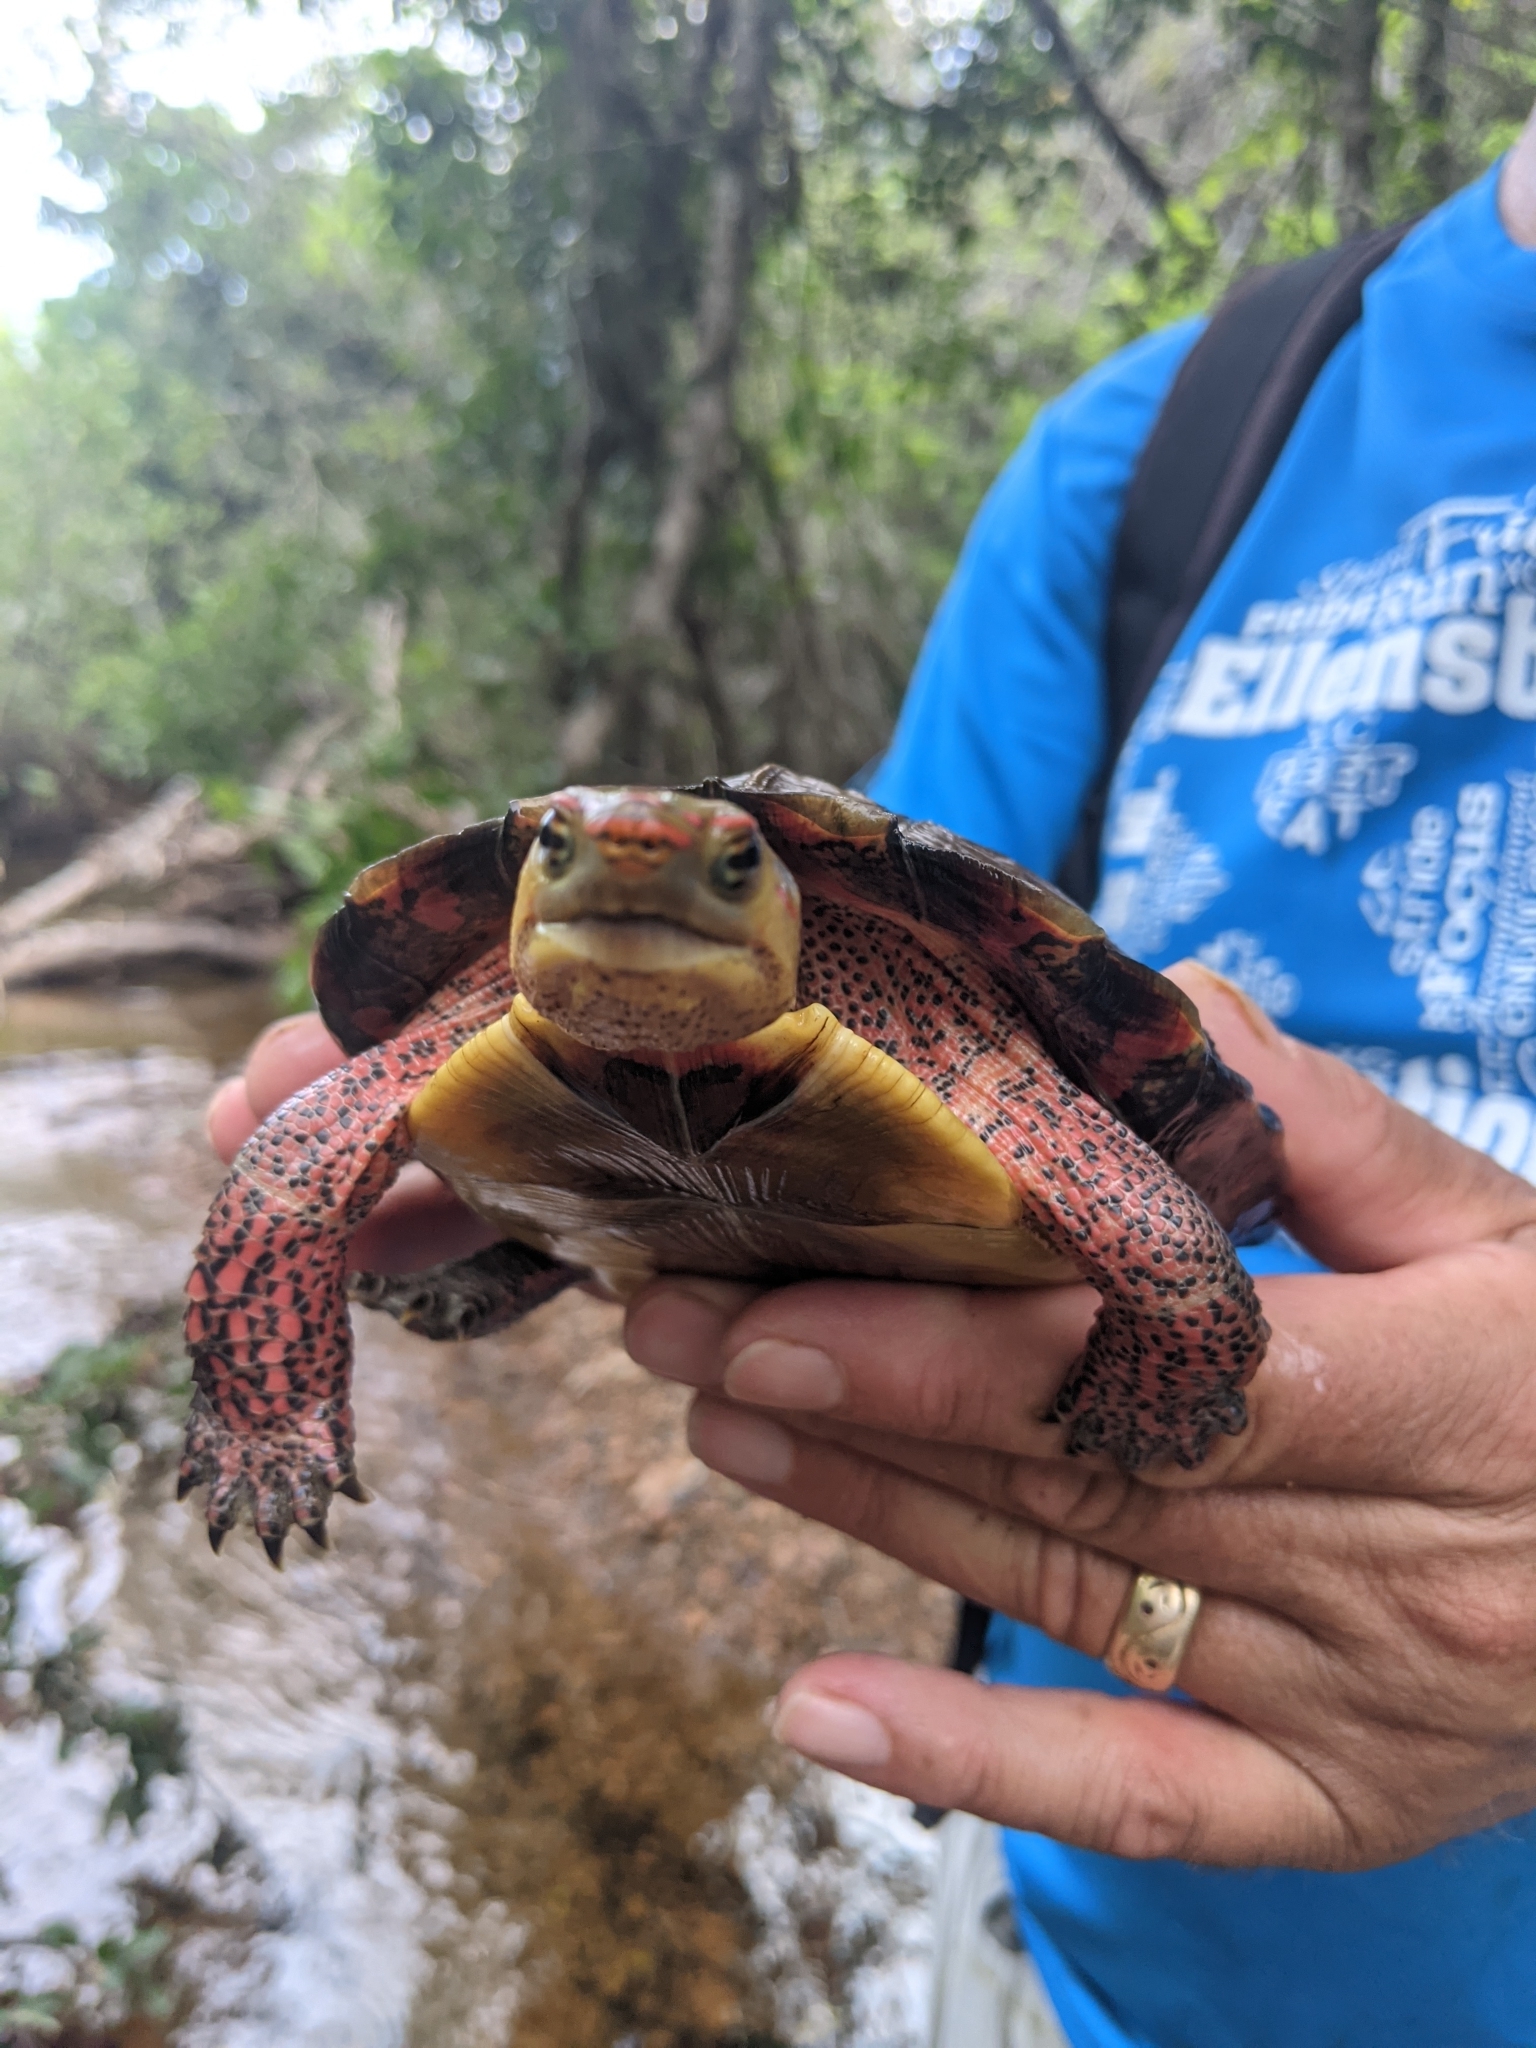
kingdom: Animalia
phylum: Chordata
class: Testudines
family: Geoemydidae
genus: Rhinoclemmys
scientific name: Rhinoclemmys pulcherrima
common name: Painted wood turtle
